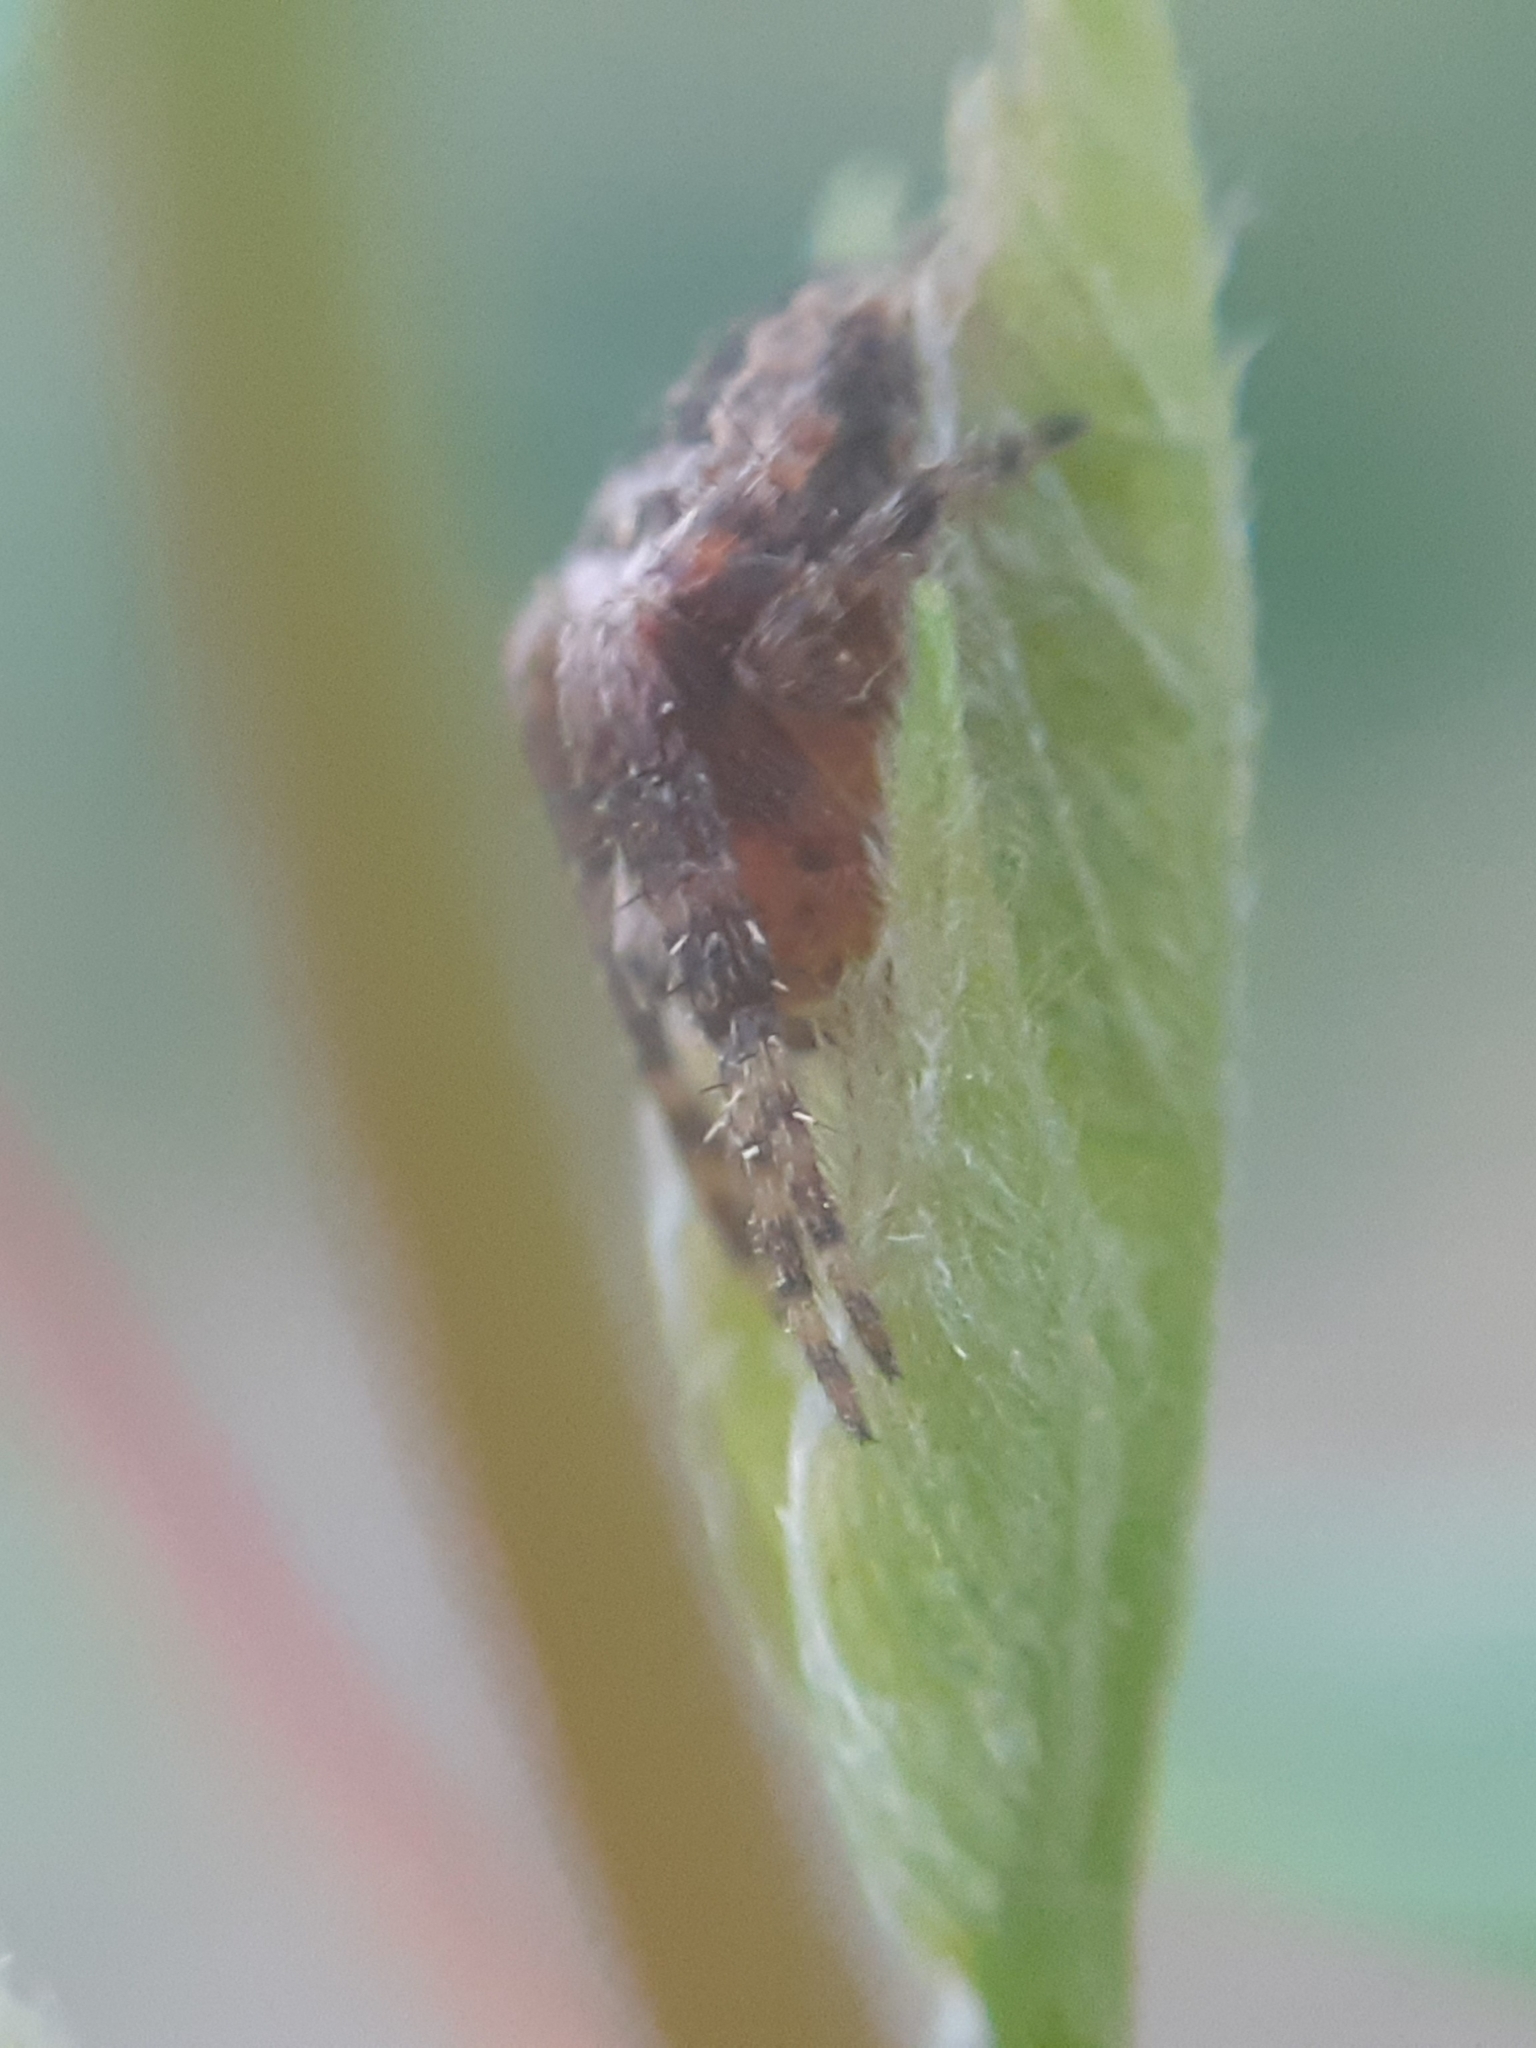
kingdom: Animalia
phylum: Arthropoda
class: Arachnida
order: Araneae
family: Araneidae
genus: Araneus
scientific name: Araneus diadematus
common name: Cross orbweaver
